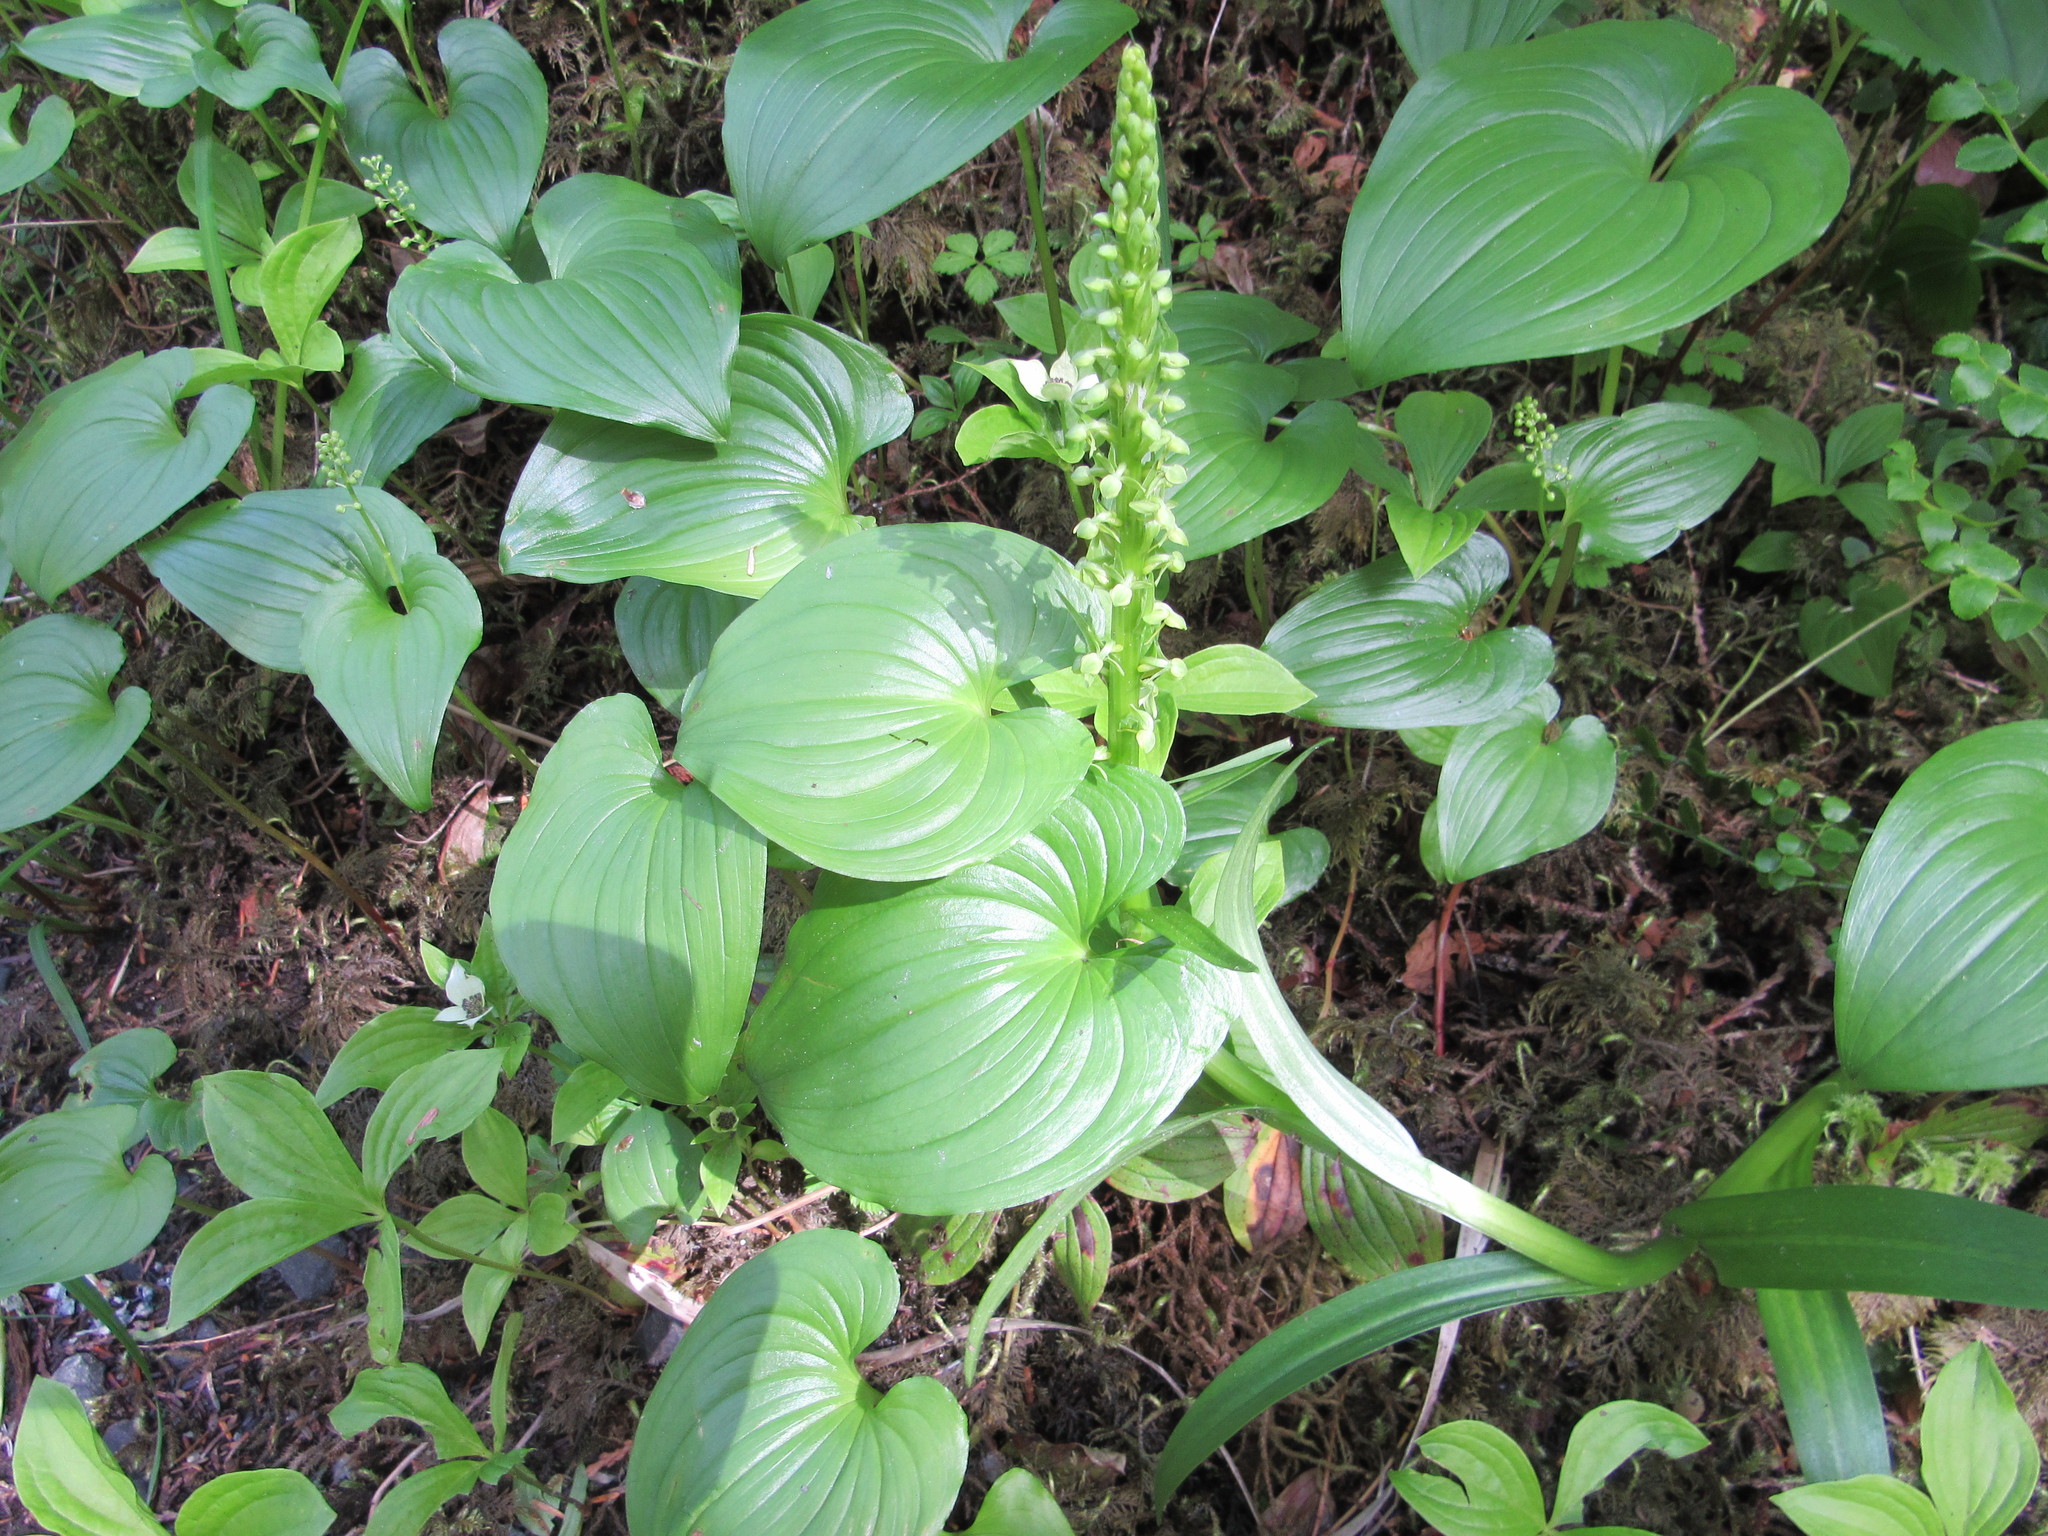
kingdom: Plantae
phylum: Tracheophyta
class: Liliopsida
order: Asparagales
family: Asparagaceae
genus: Maianthemum
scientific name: Maianthemum dilatatum
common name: False lily-of-the-valley
